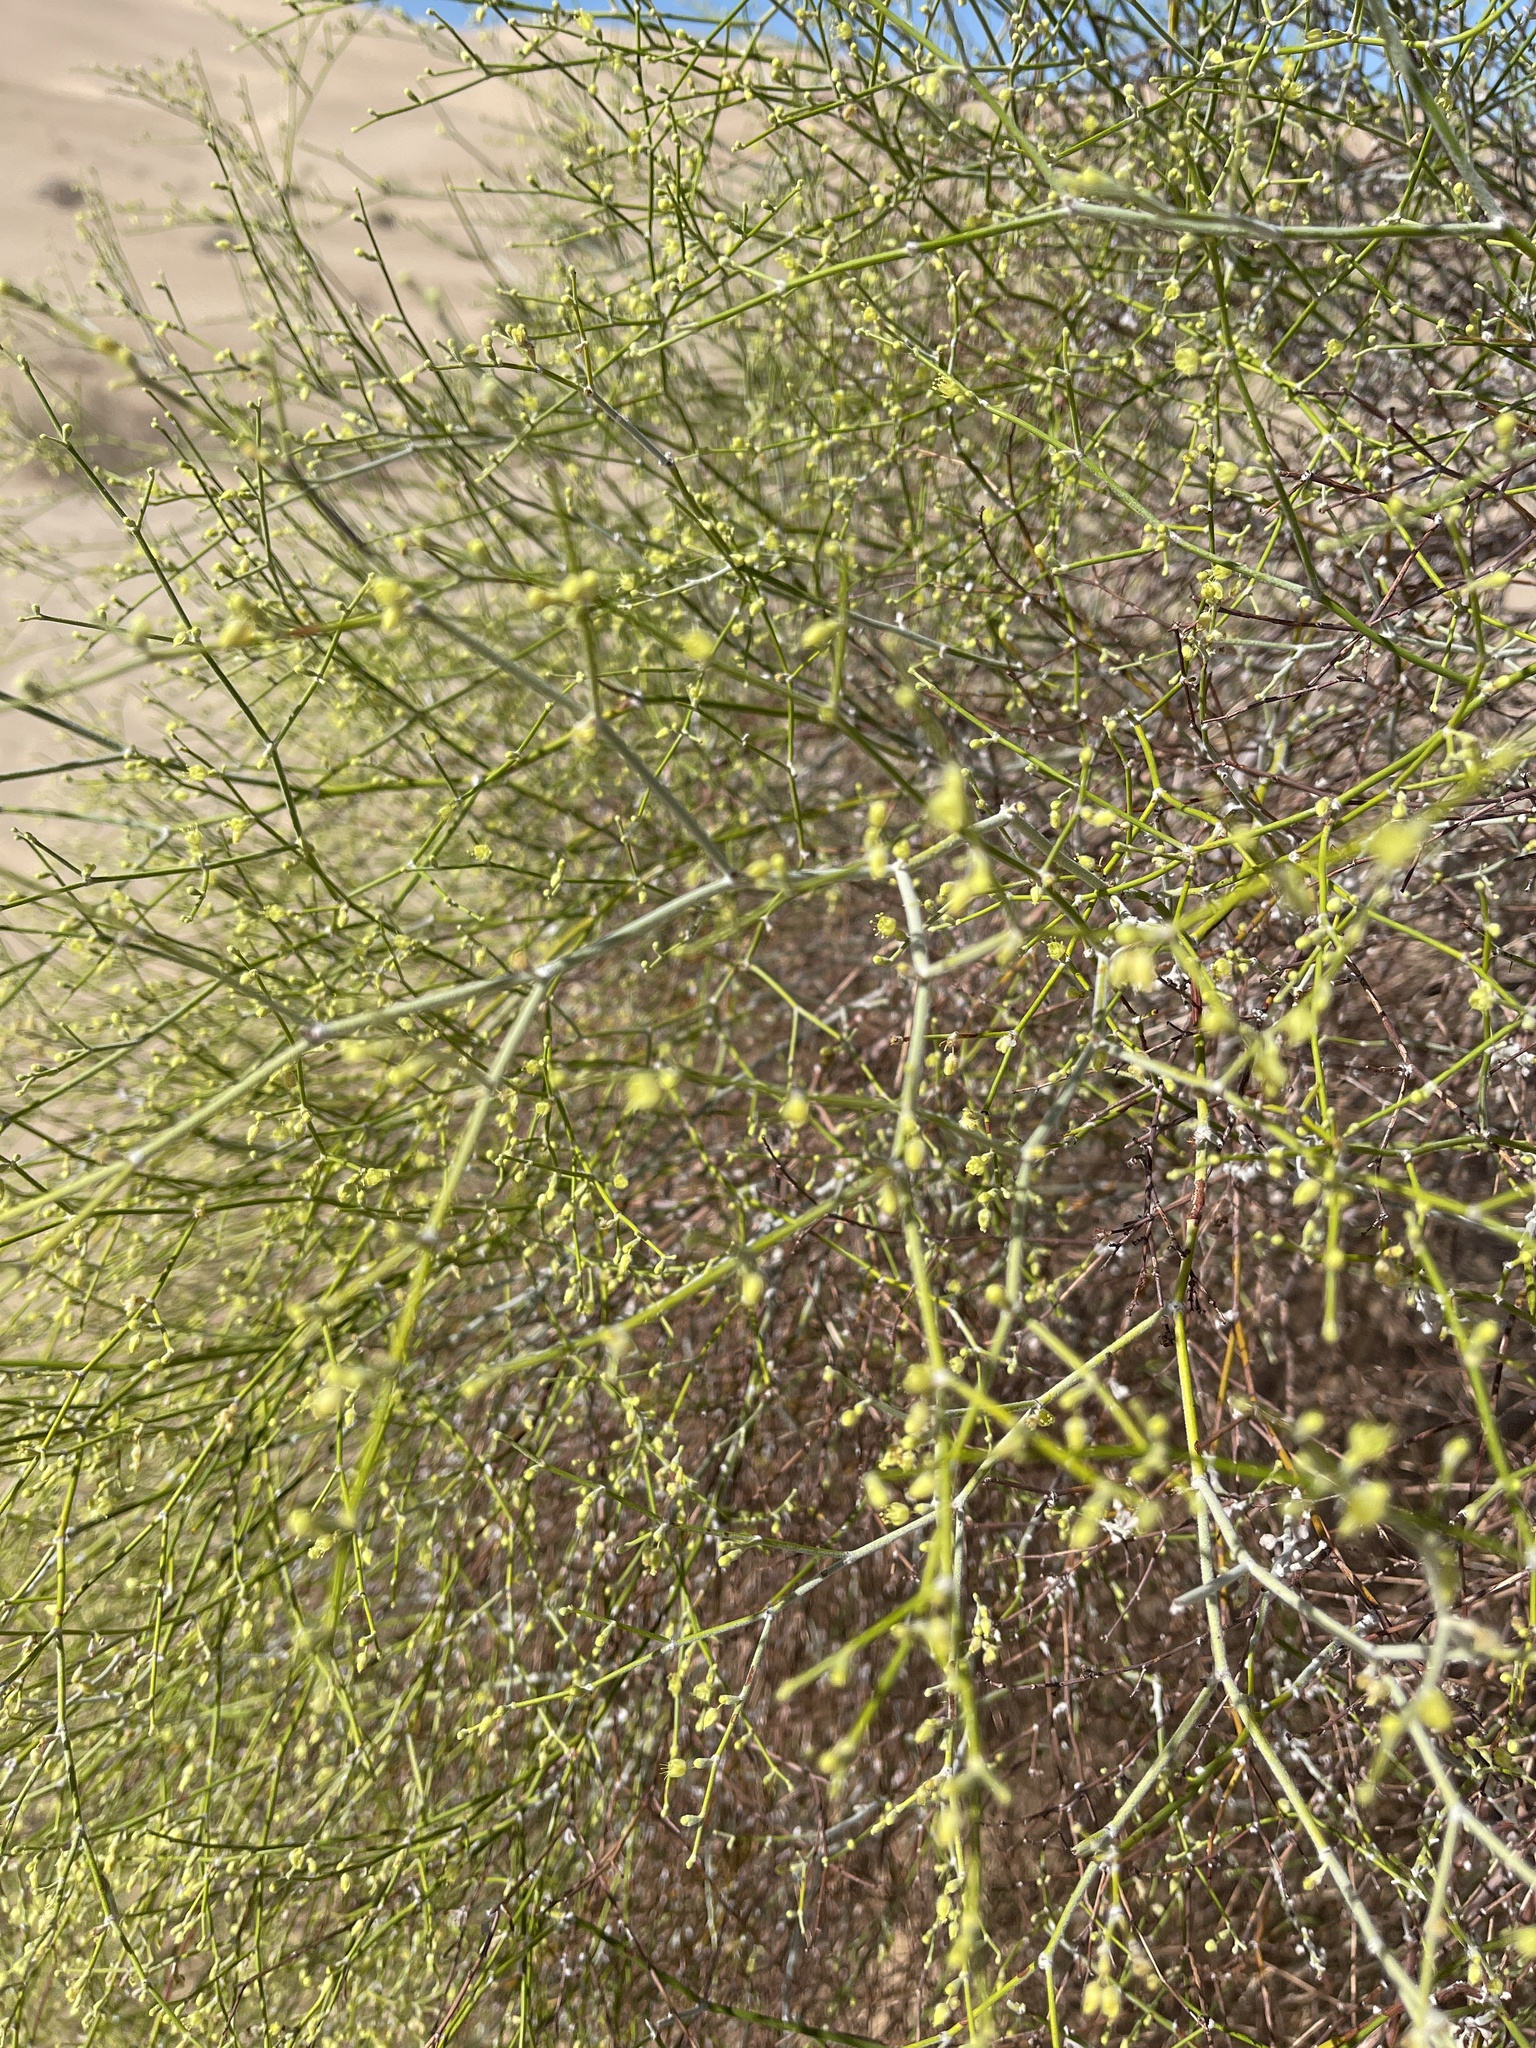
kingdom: Plantae
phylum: Tracheophyta
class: Magnoliopsida
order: Caryophyllales
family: Polygonaceae
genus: Eriogonum
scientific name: Eriogonum deserticola
